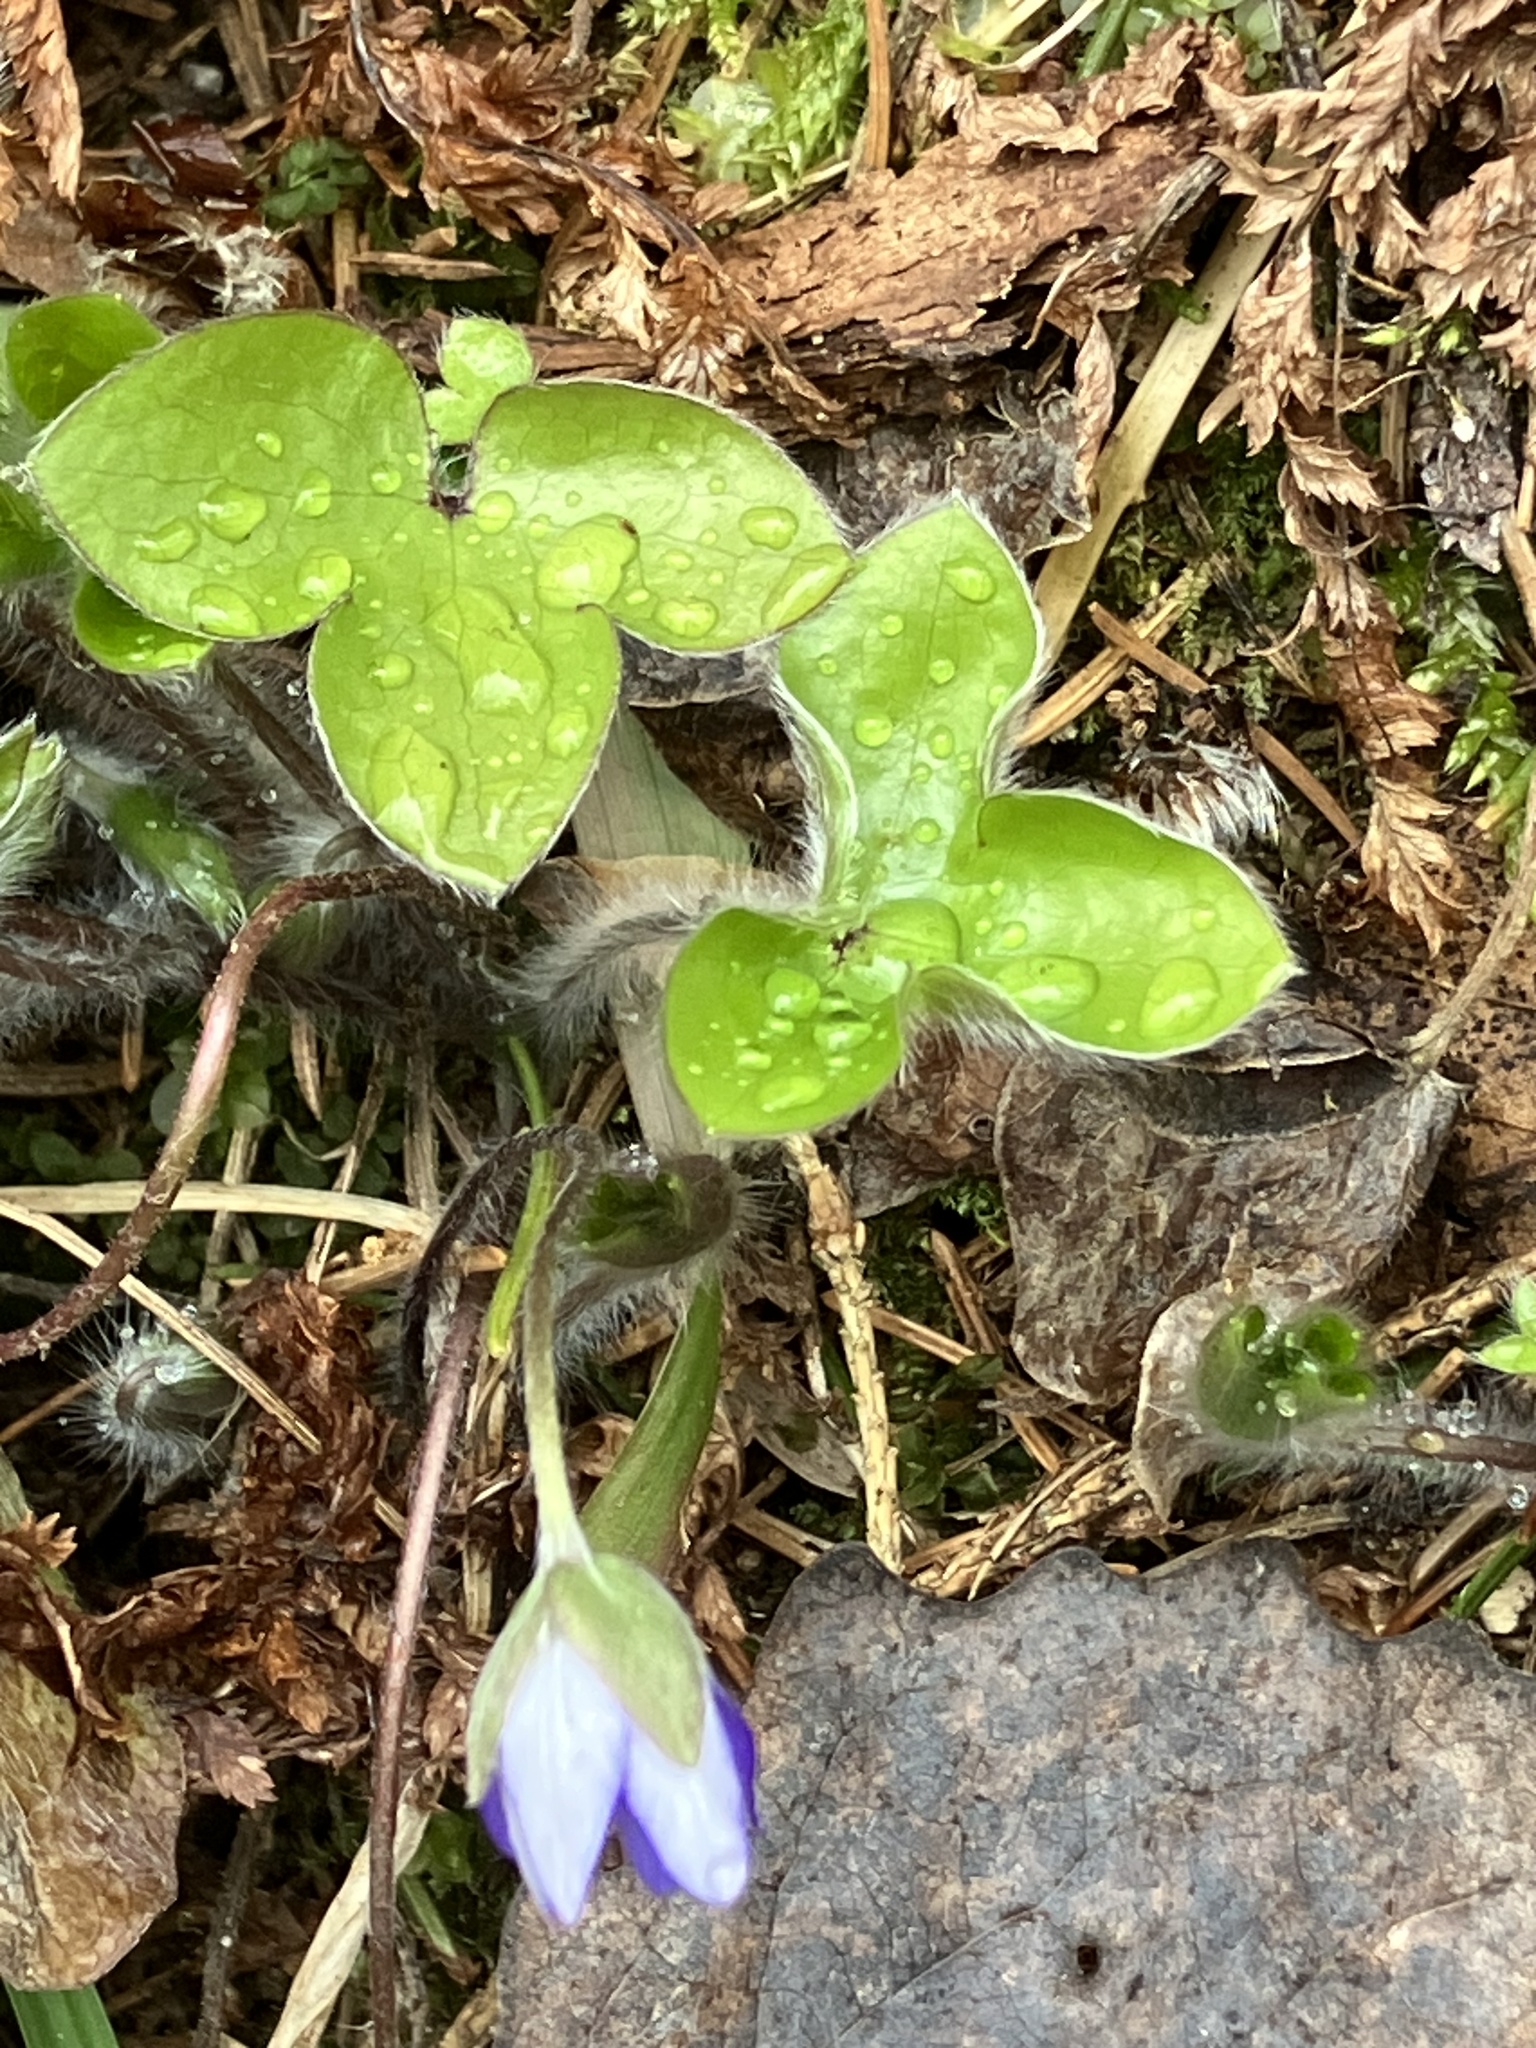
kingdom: Plantae
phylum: Tracheophyta
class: Magnoliopsida
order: Ranunculales
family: Ranunculaceae
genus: Hepatica
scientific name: Hepatica nobilis
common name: Liverleaf
